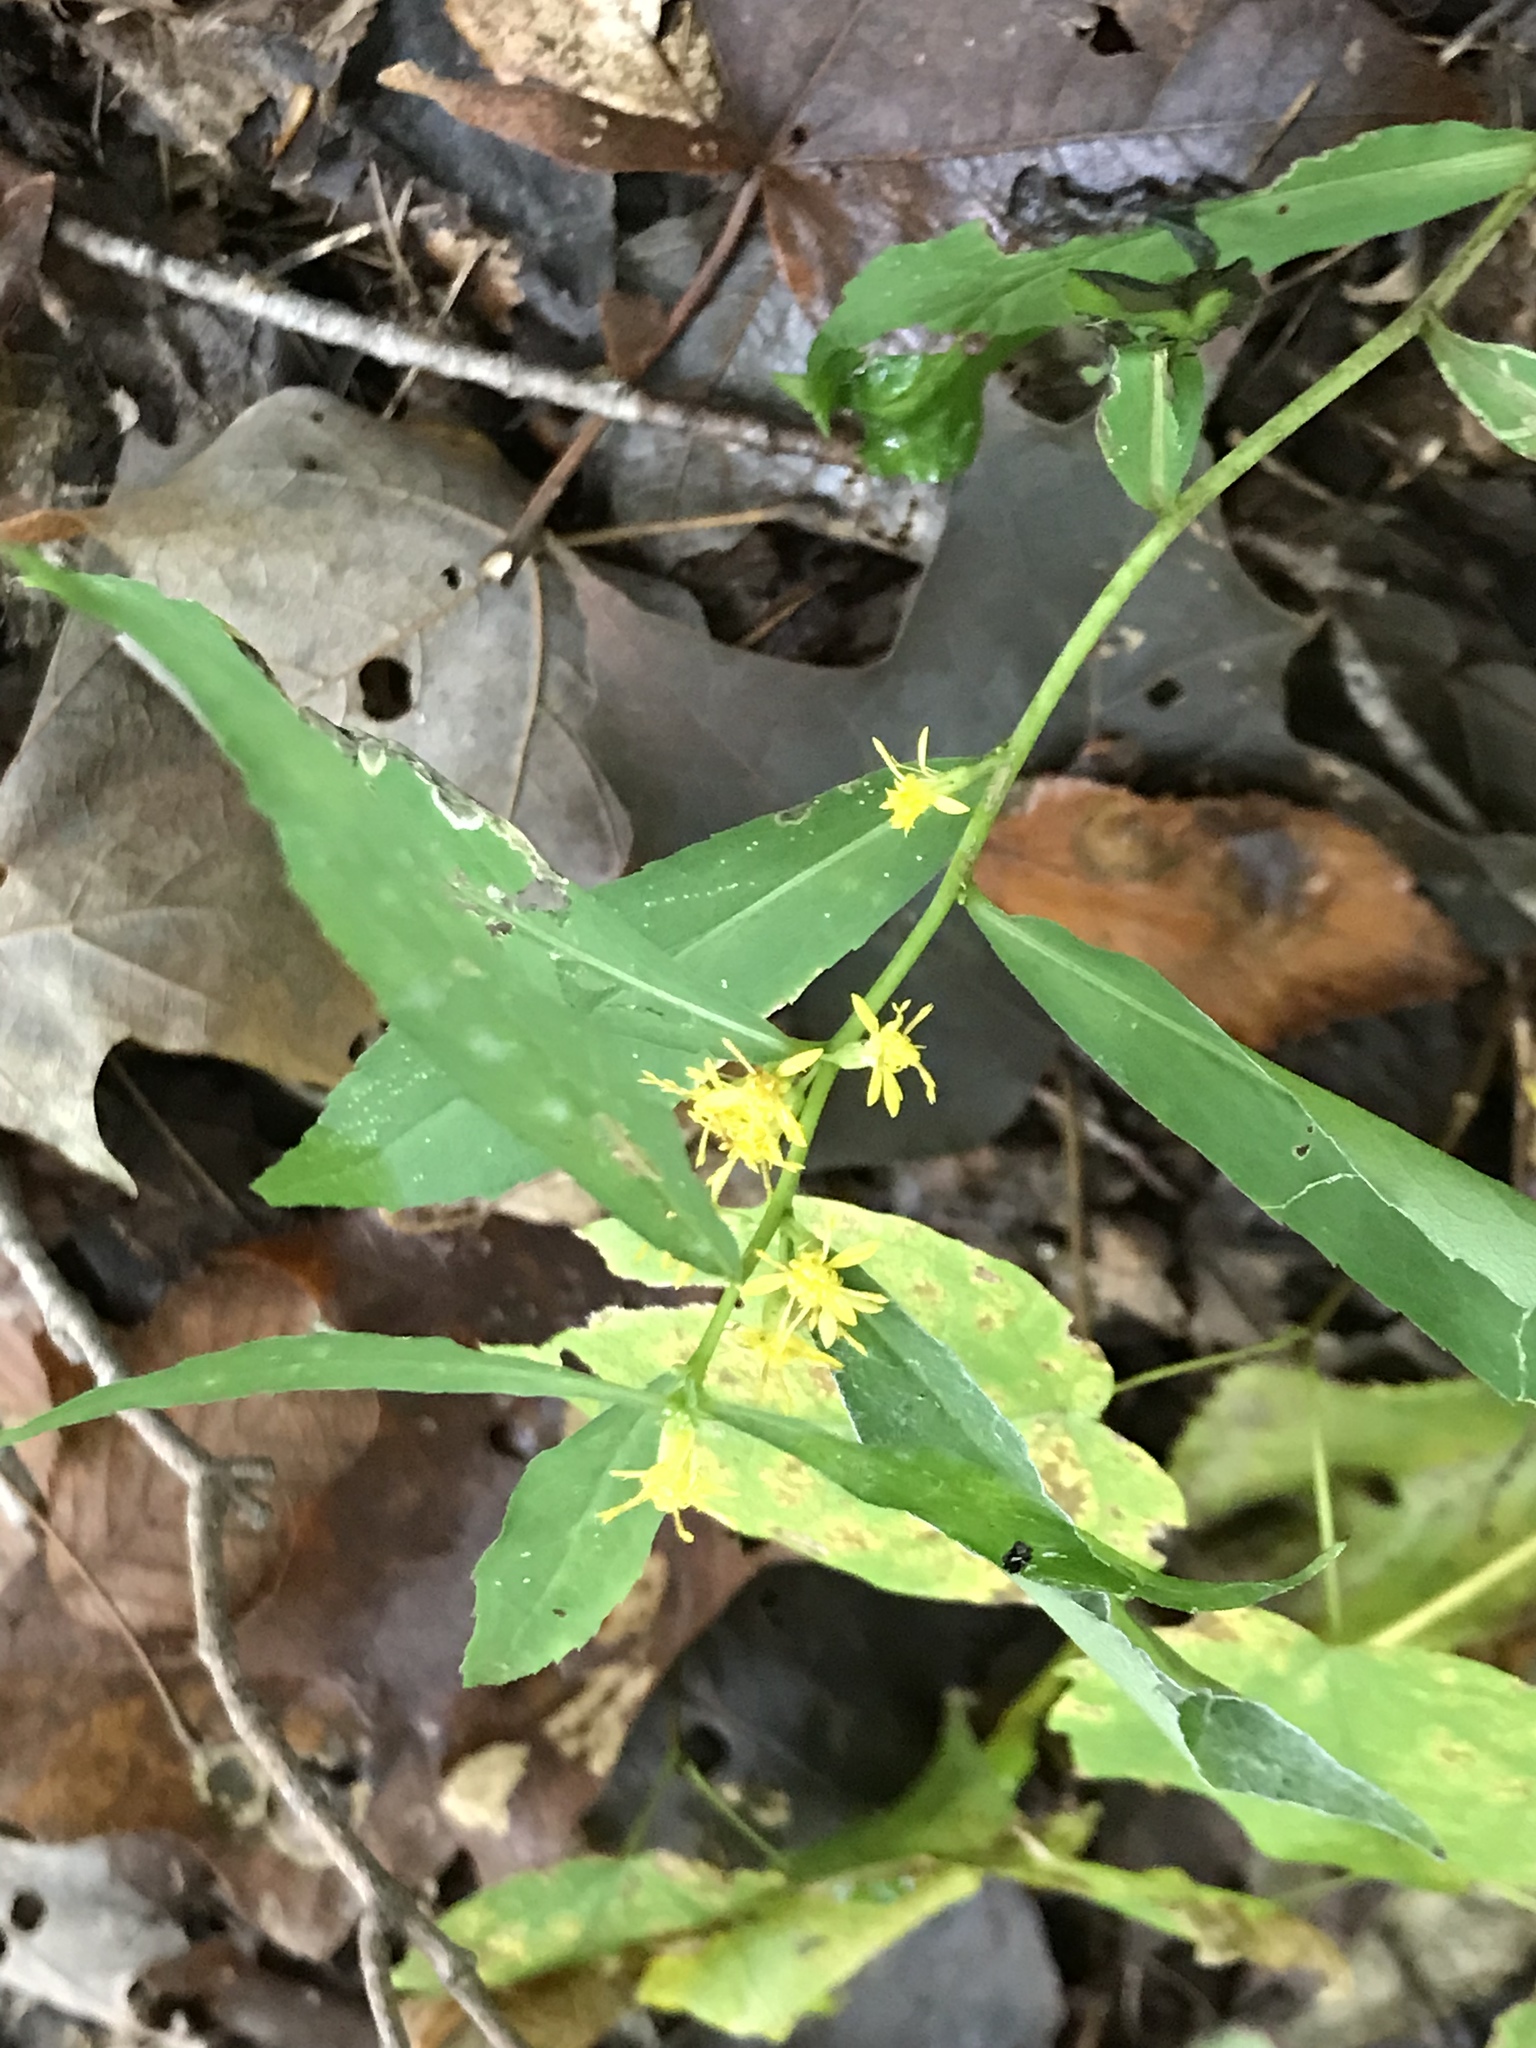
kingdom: Plantae
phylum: Tracheophyta
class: Magnoliopsida
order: Asterales
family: Asteraceae
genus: Solidago
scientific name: Solidago caesia
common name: Woodland goldenrod
